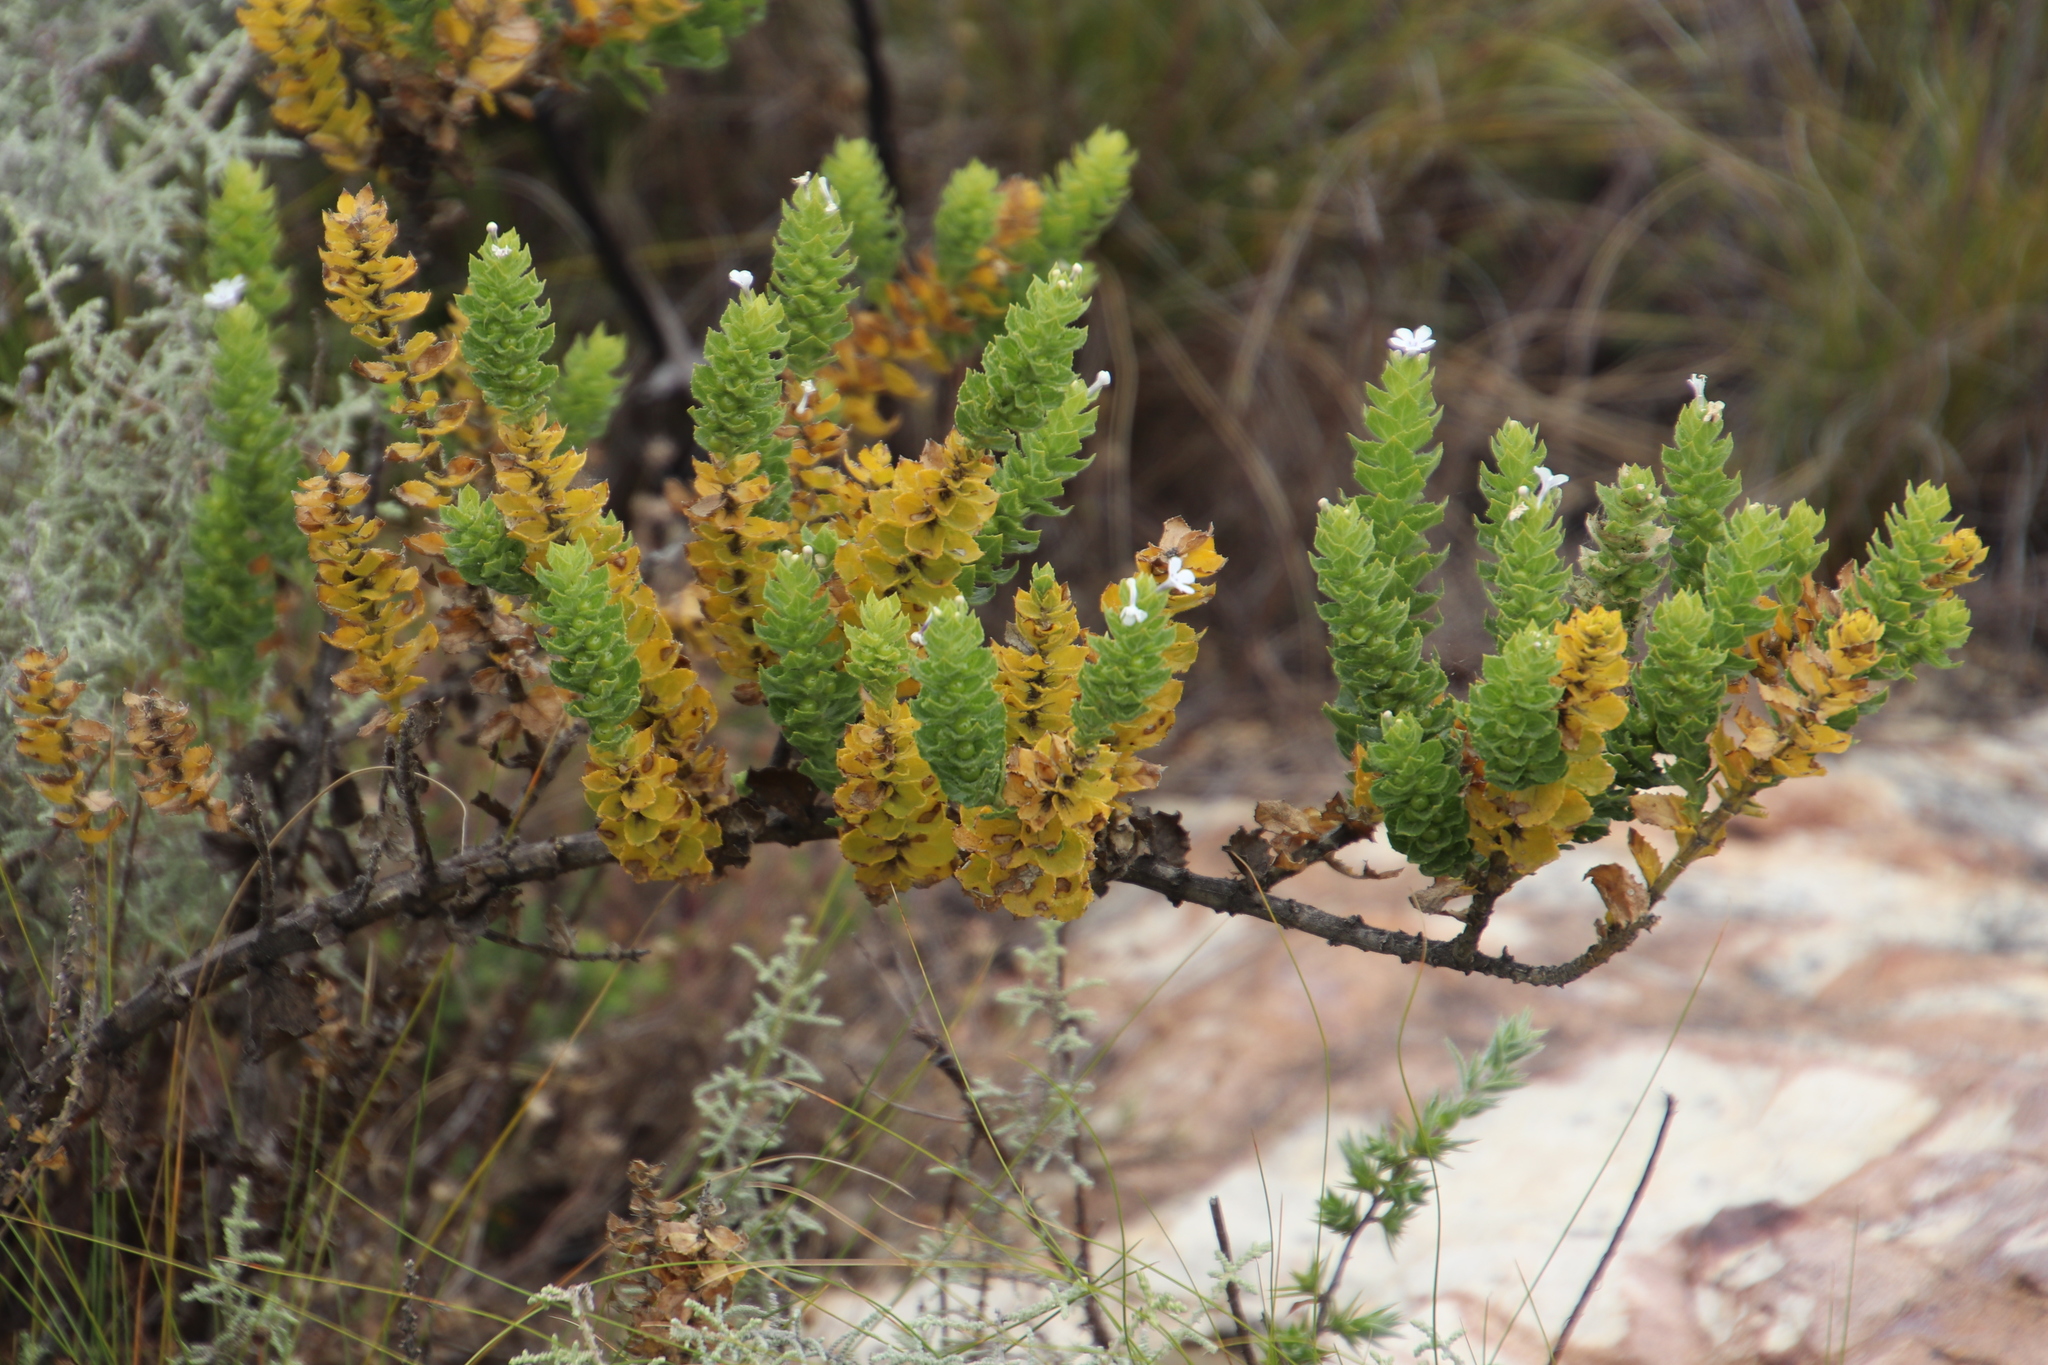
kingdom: Plantae
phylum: Tracheophyta
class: Magnoliopsida
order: Lamiales
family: Scrophulariaceae
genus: Oftia
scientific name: Oftia africana
